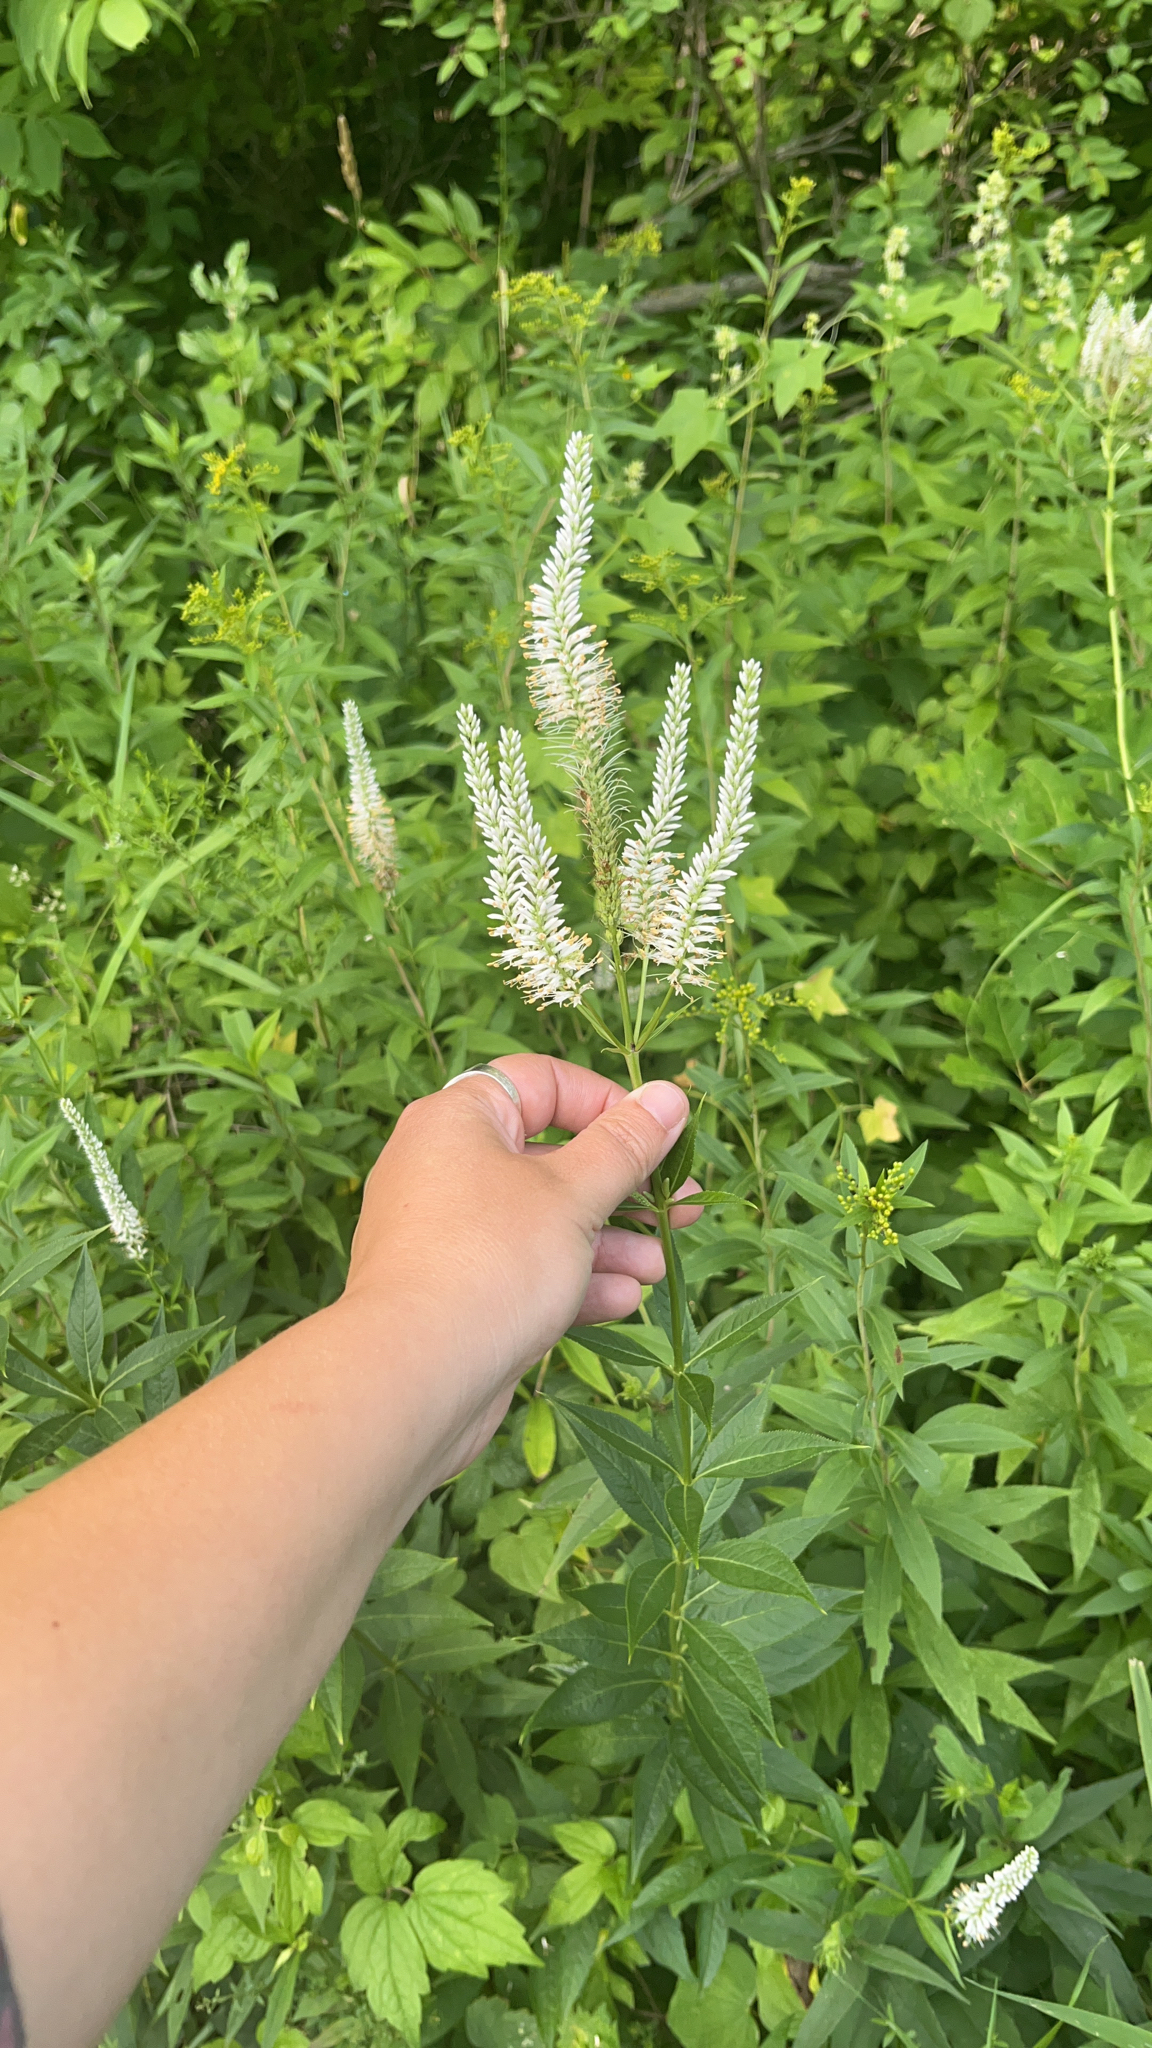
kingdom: Plantae
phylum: Tracheophyta
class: Magnoliopsida
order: Lamiales
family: Plantaginaceae
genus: Veronicastrum
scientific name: Veronicastrum virginicum
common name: Blackroot
